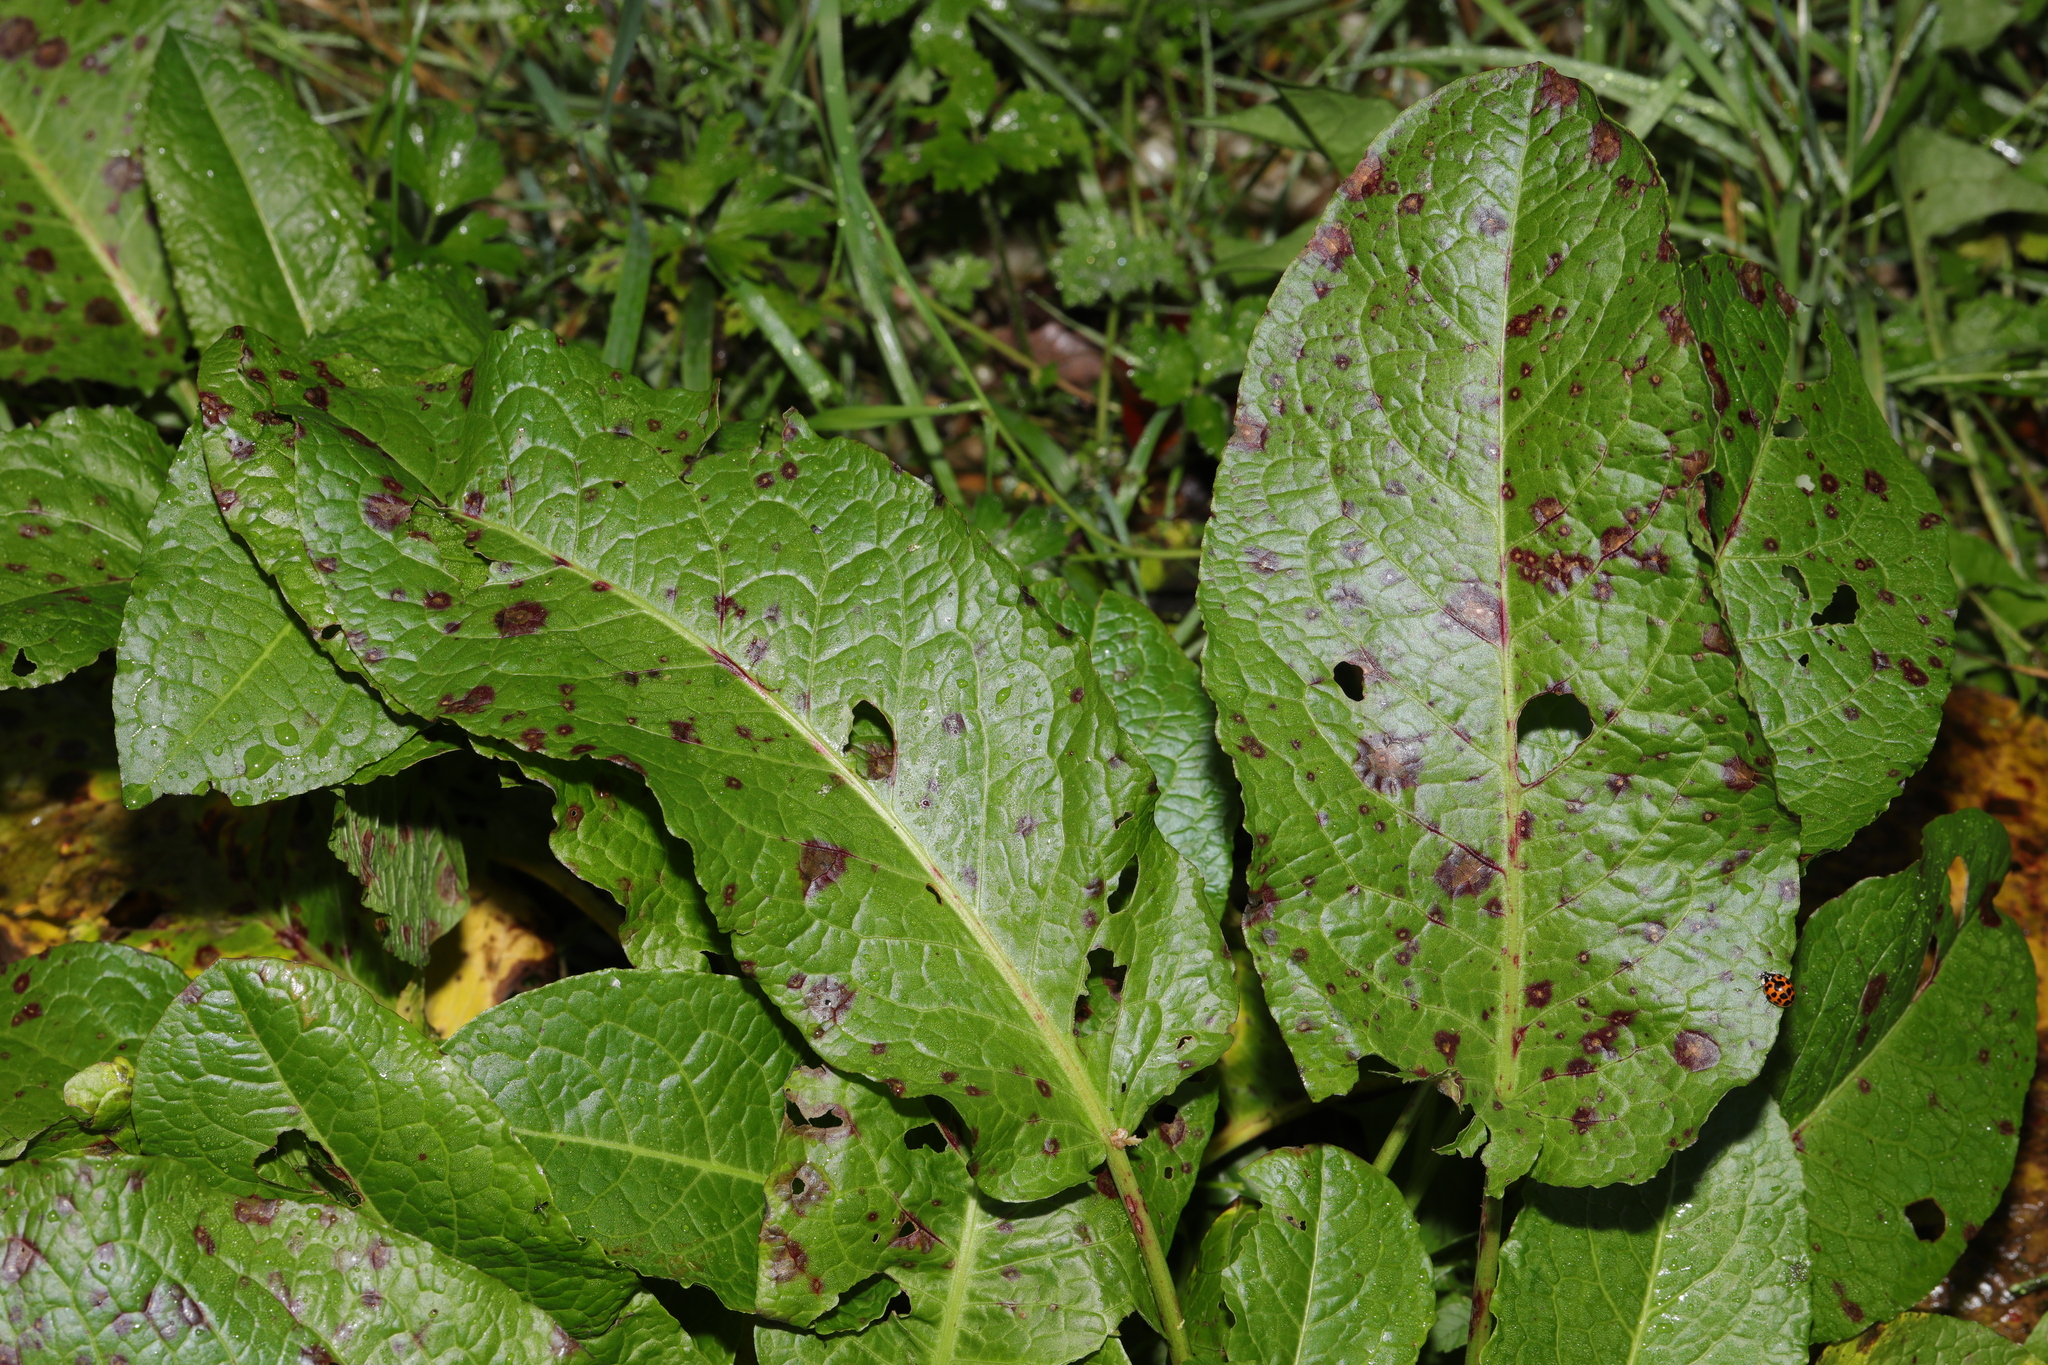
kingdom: Plantae
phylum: Tracheophyta
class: Magnoliopsida
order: Caryophyllales
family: Polygonaceae
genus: Rumex
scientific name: Rumex obtusifolius
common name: Bitter dock
